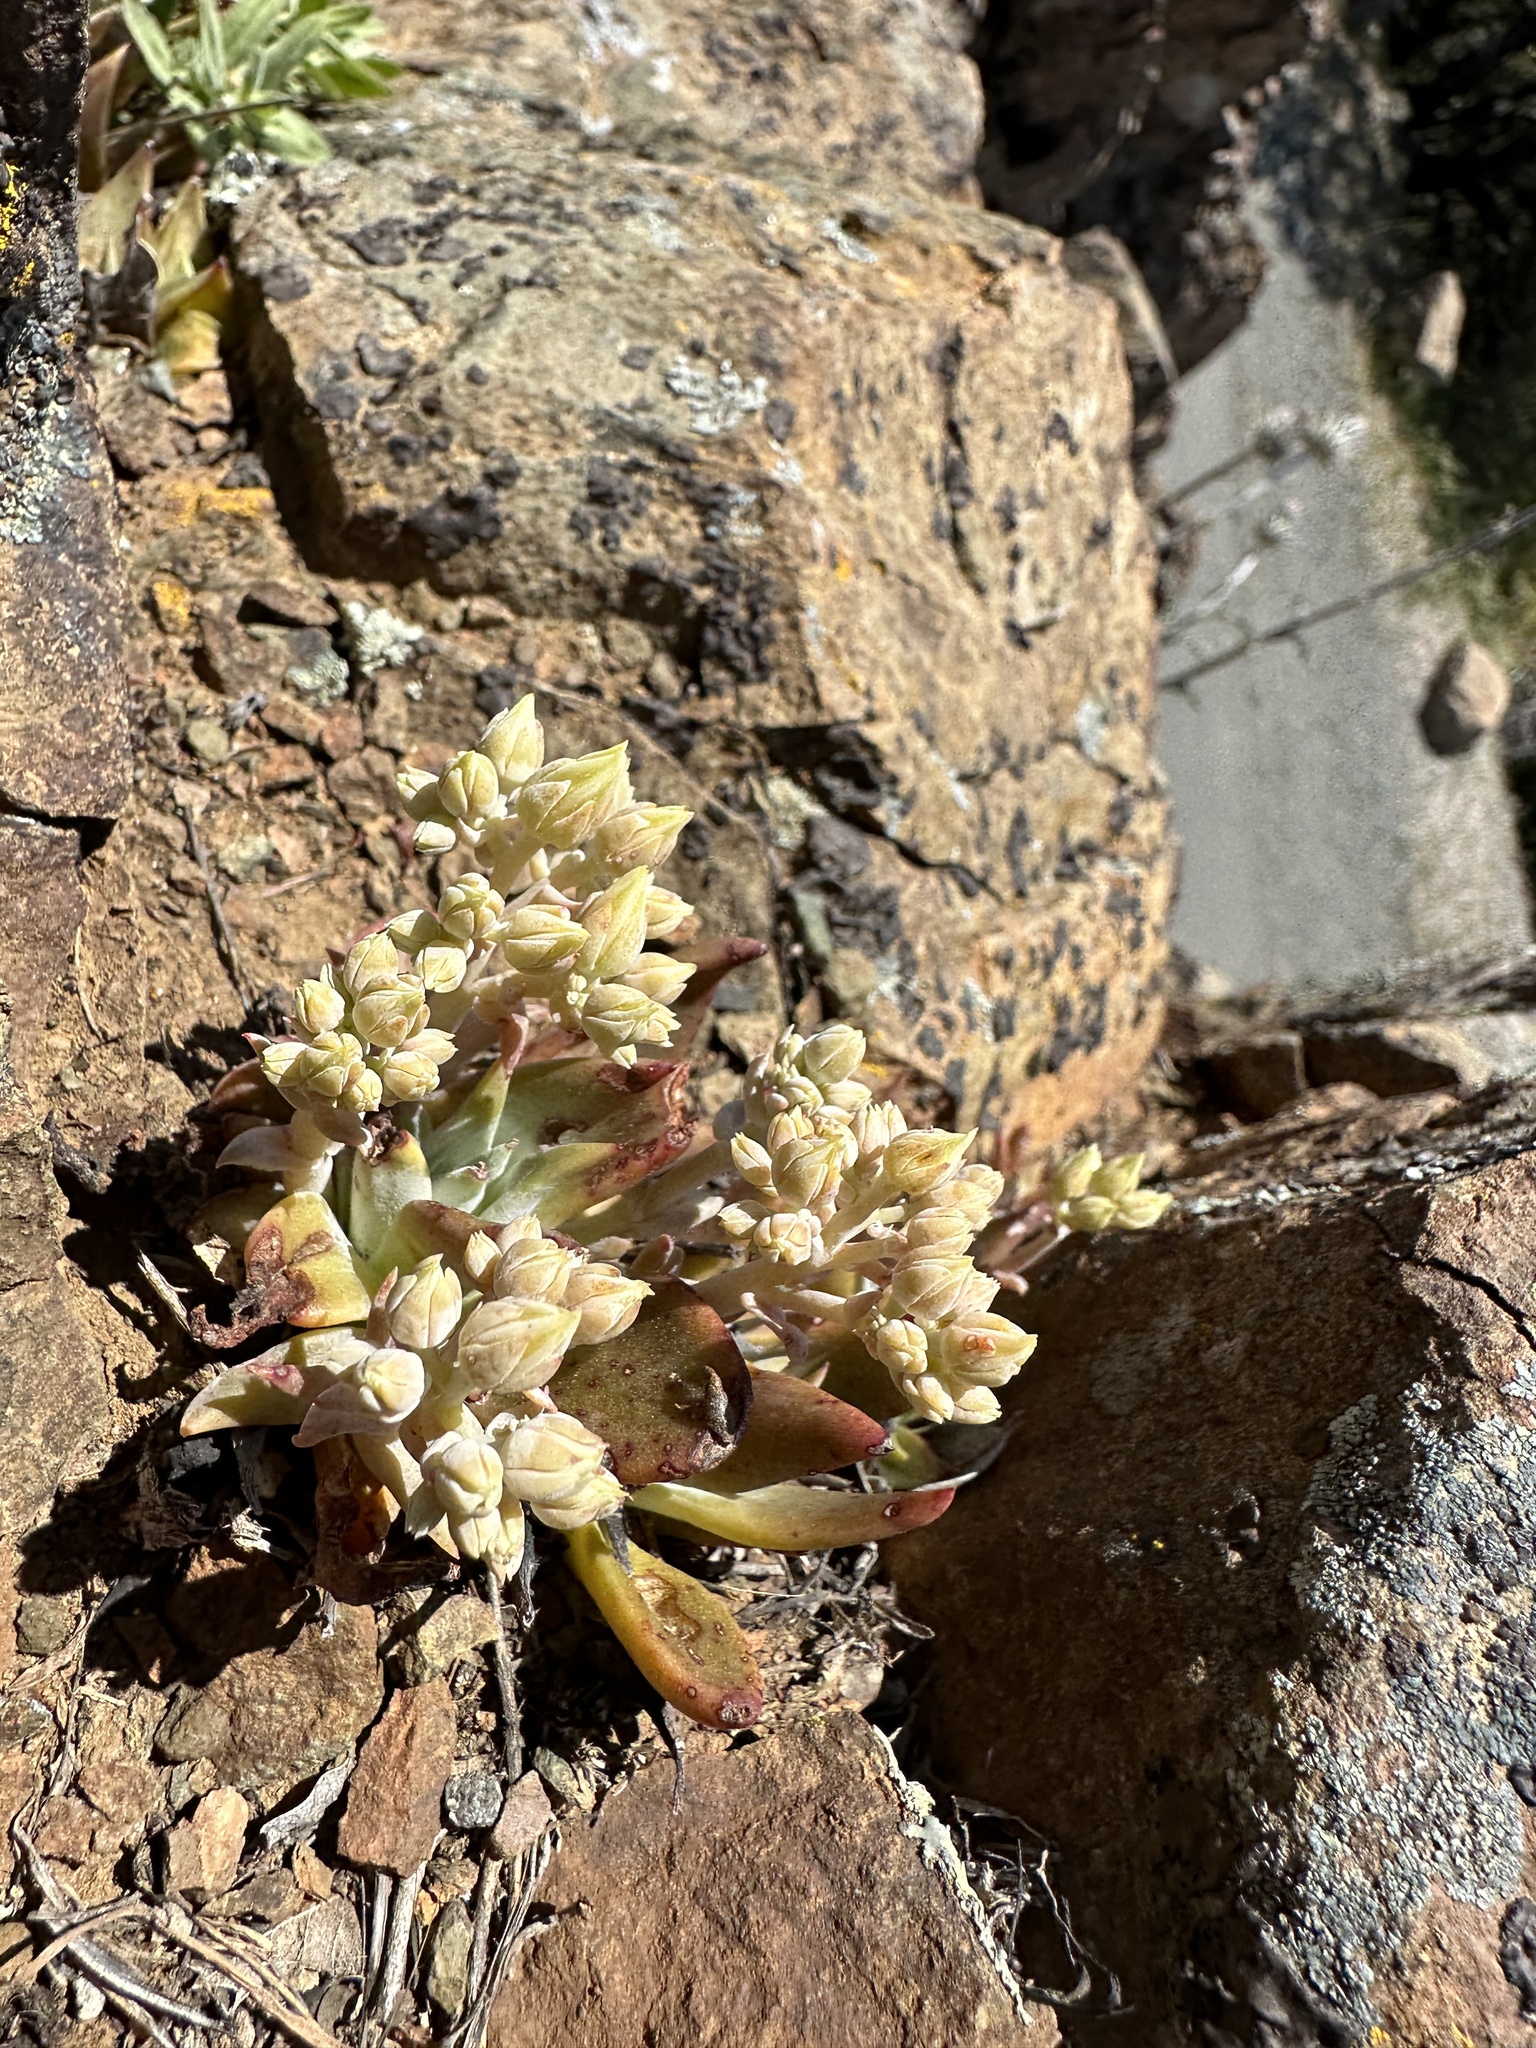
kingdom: Plantae
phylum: Tracheophyta
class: Magnoliopsida
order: Saxifragales
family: Crassulaceae
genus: Dudleya
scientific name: Dudleya cymosa
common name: Canyon dudleya
